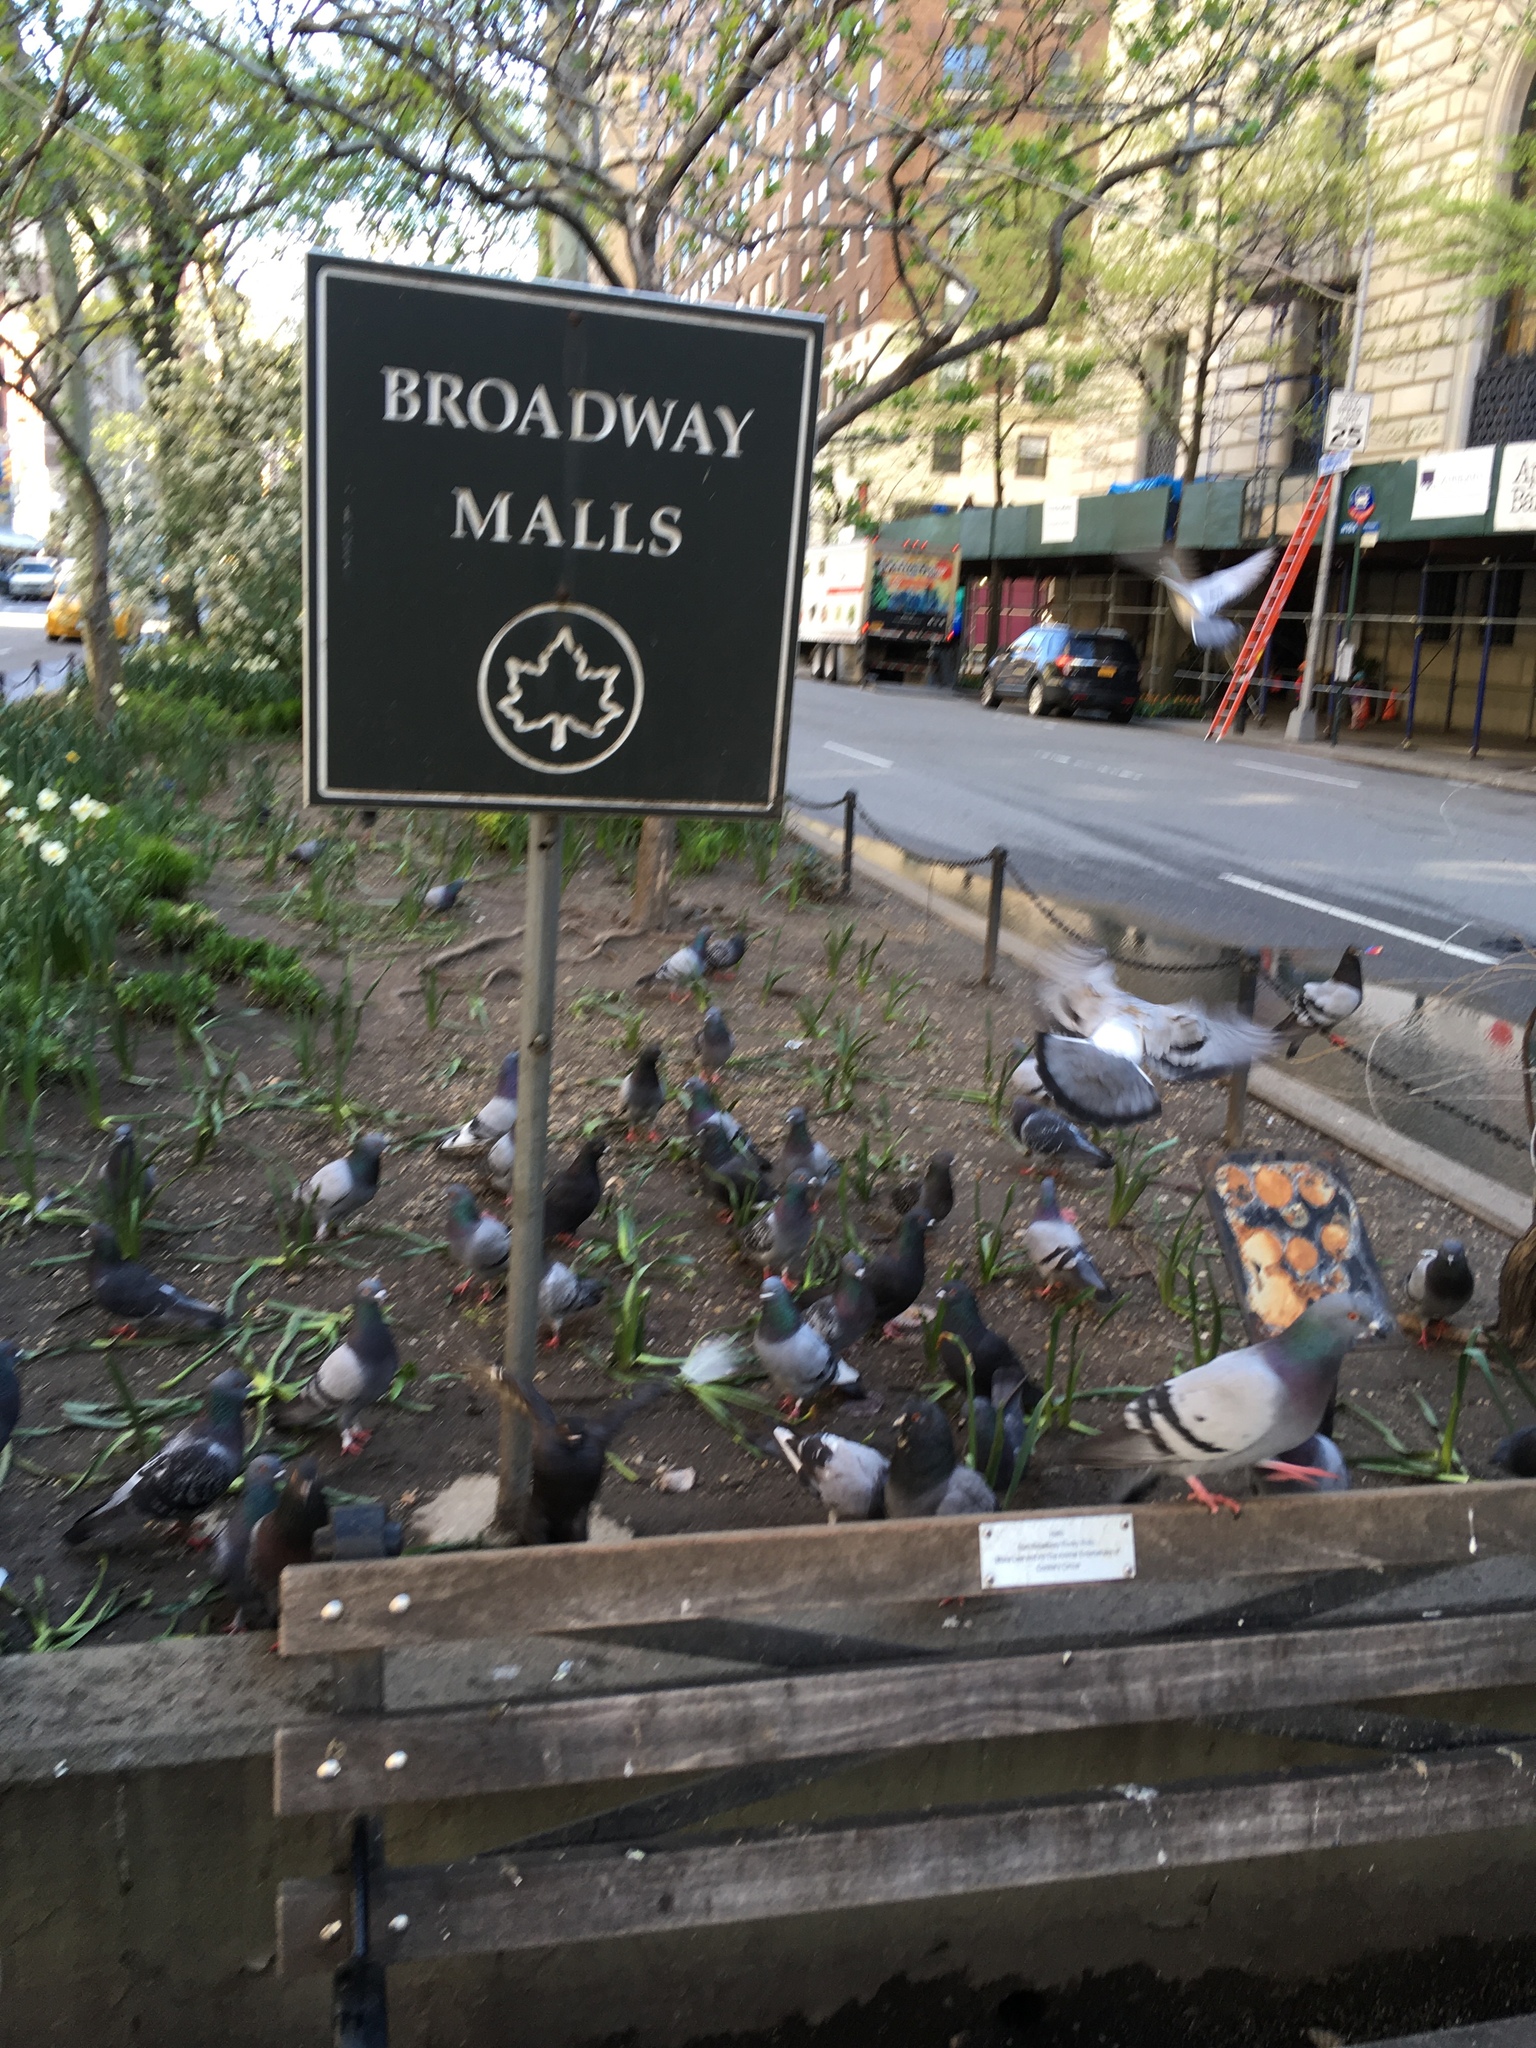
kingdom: Animalia
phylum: Chordata
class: Aves
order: Columbiformes
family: Columbidae
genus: Columba
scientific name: Columba livia
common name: Rock pigeon
